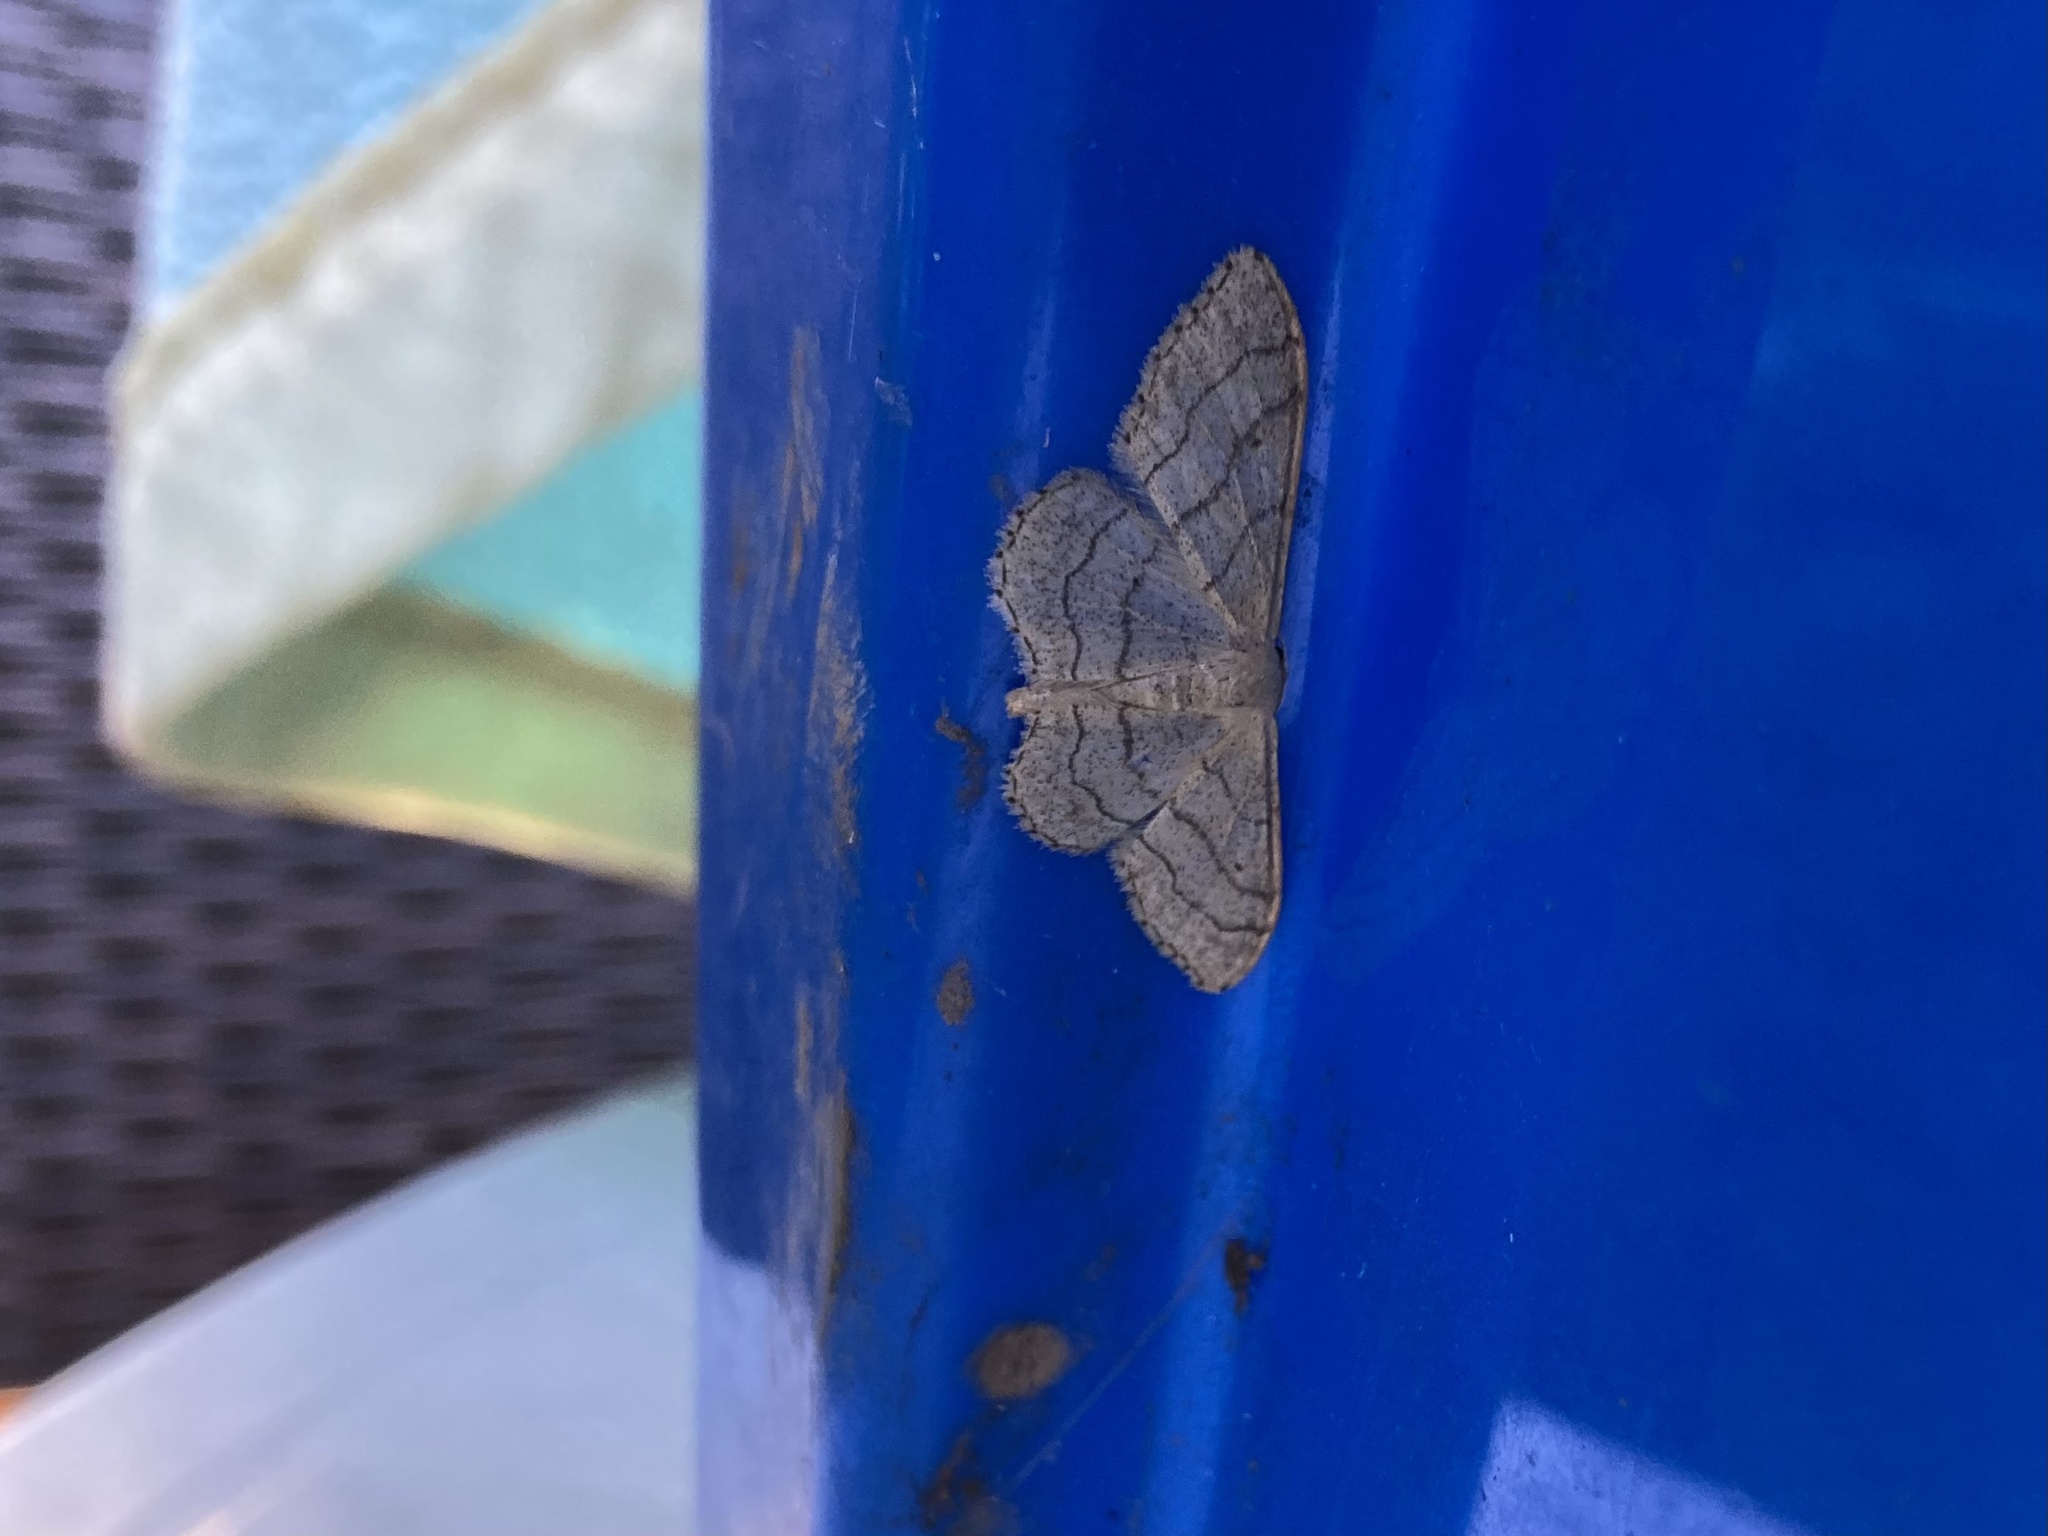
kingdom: Animalia
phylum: Arthropoda
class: Insecta
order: Lepidoptera
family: Geometridae
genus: Idaea
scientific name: Idaea aversata
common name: Riband wave
